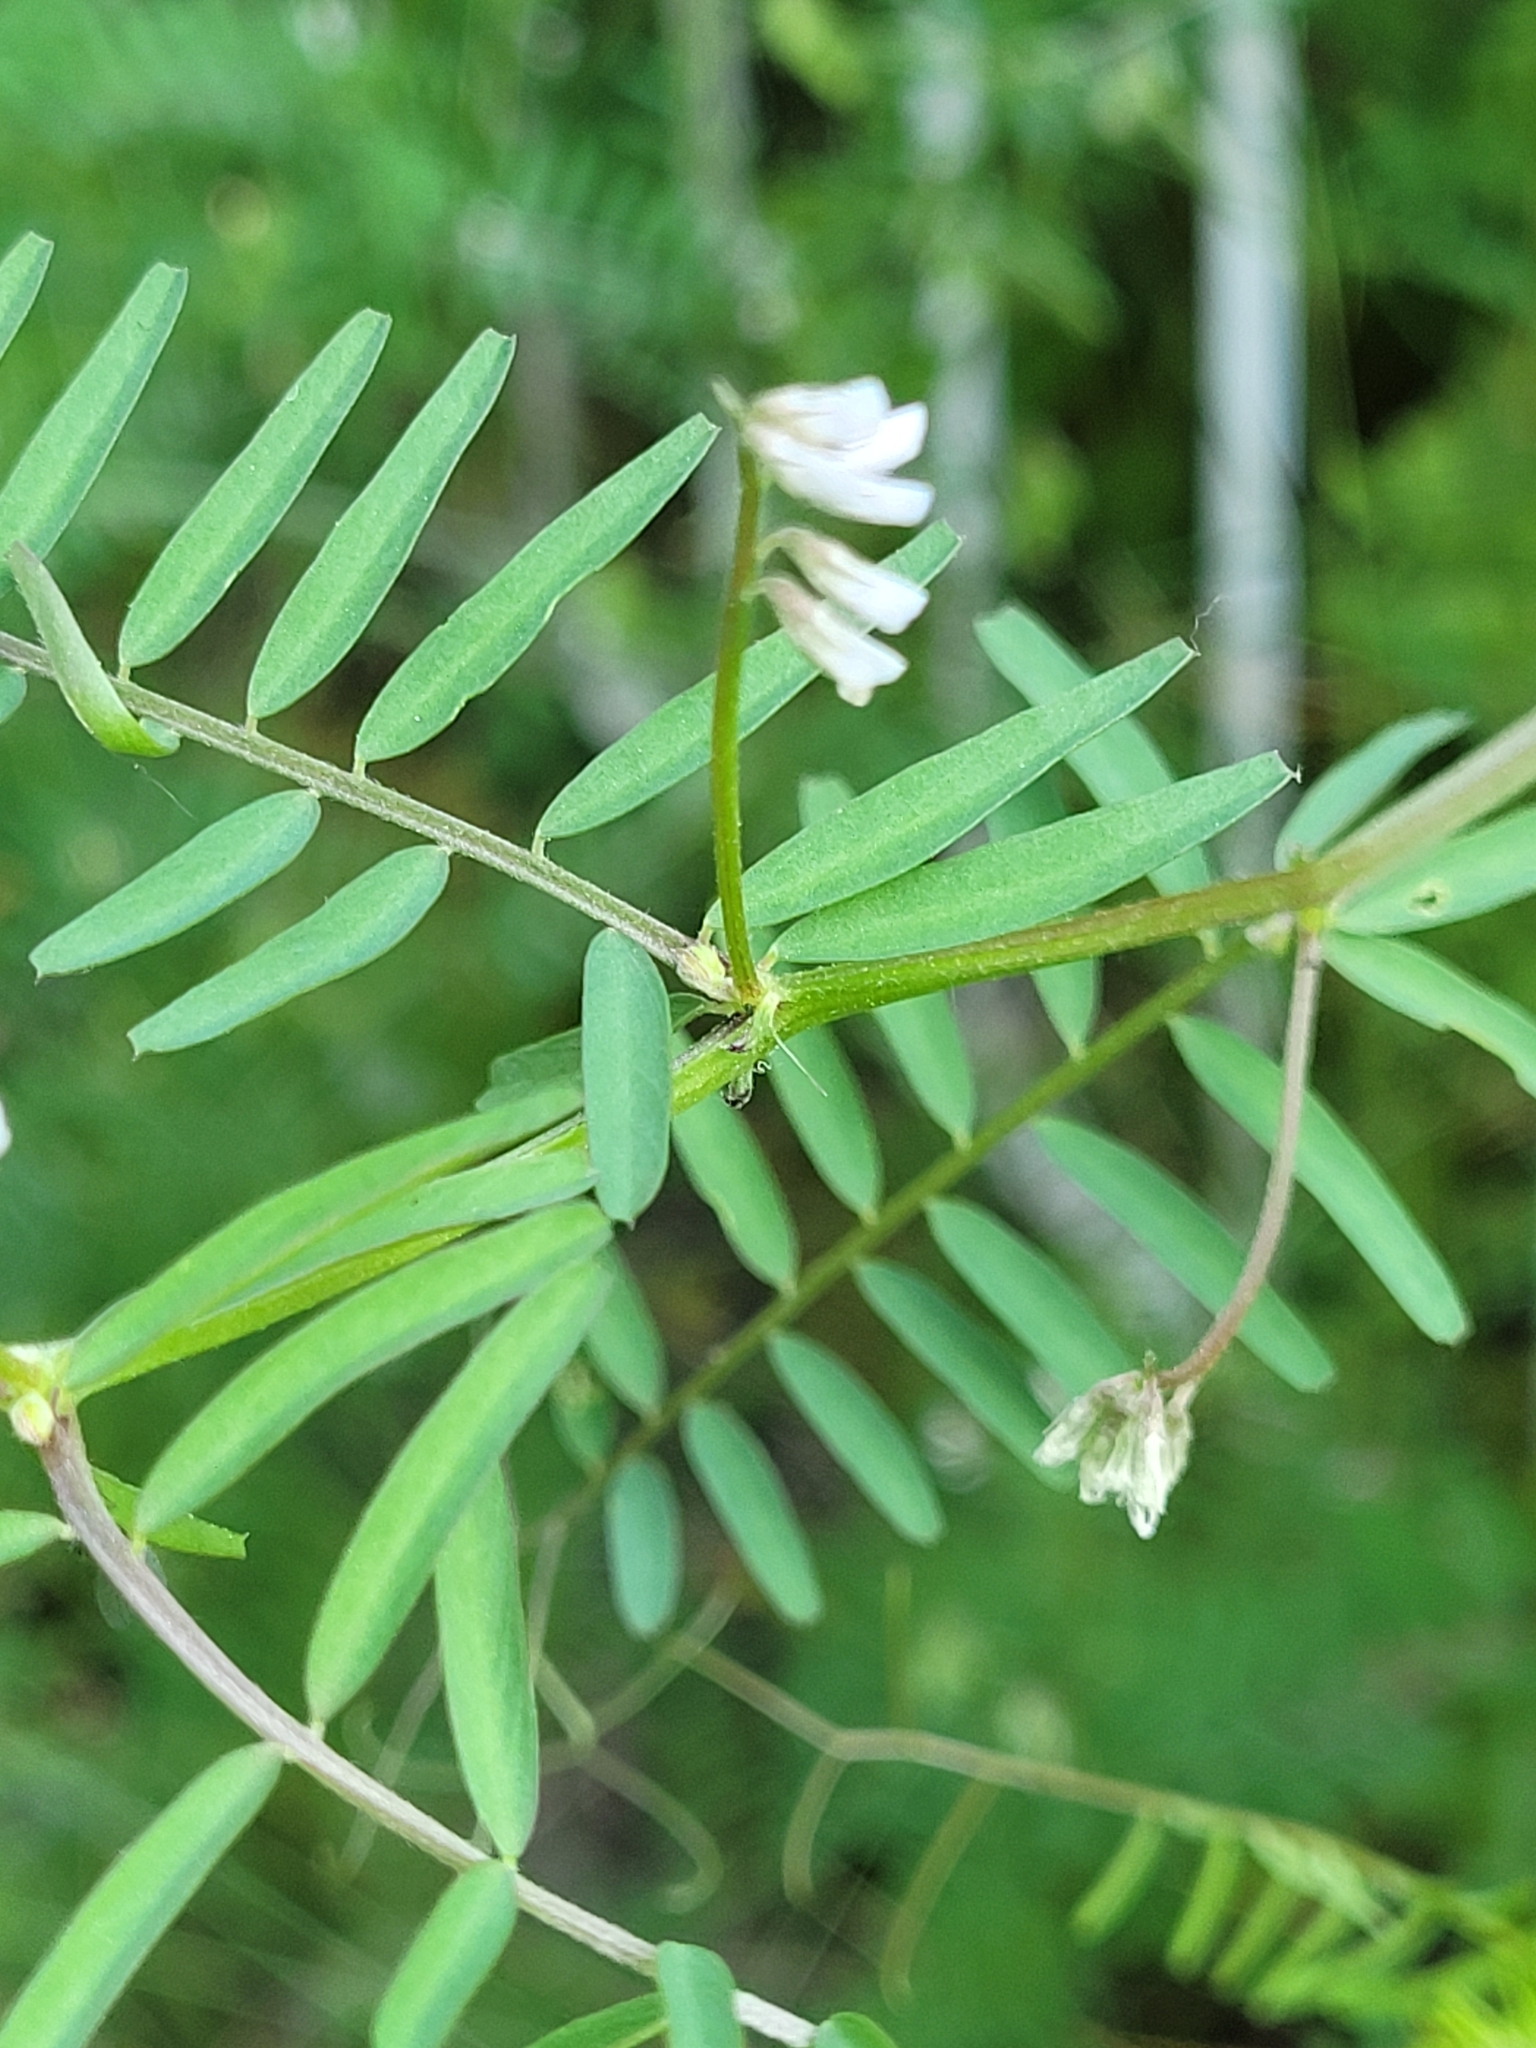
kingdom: Plantae
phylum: Tracheophyta
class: Magnoliopsida
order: Fabales
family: Fabaceae
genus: Vicia
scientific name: Vicia hirsuta
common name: Tiny vetch
